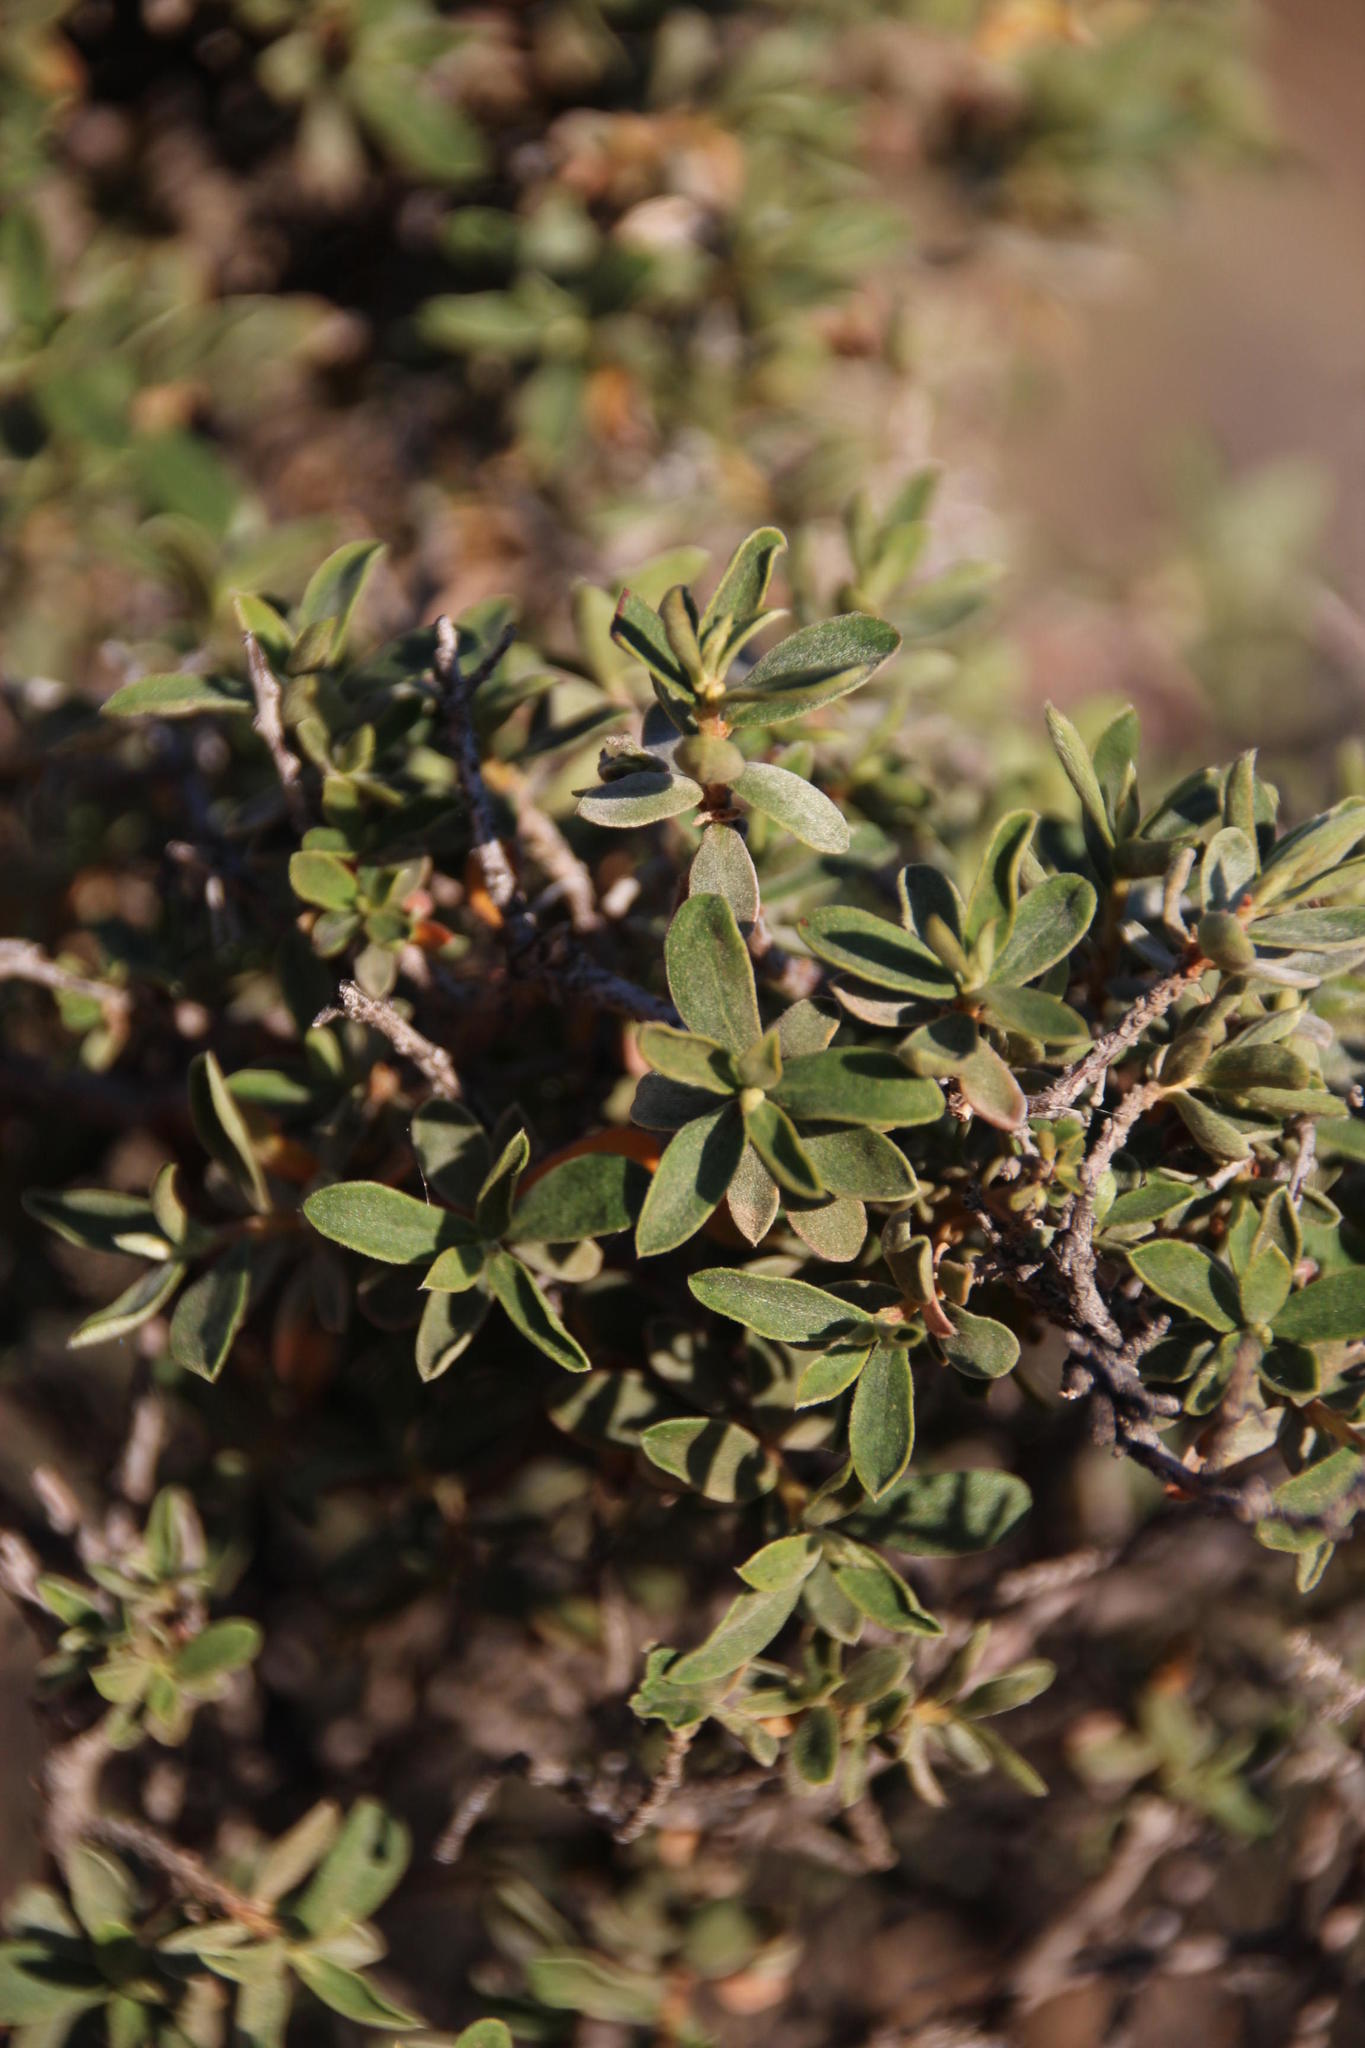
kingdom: Plantae
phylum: Tracheophyta
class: Magnoliopsida
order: Santalales
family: Loranthaceae
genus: Tapinanthus
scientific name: Tapinanthus oleifolius
